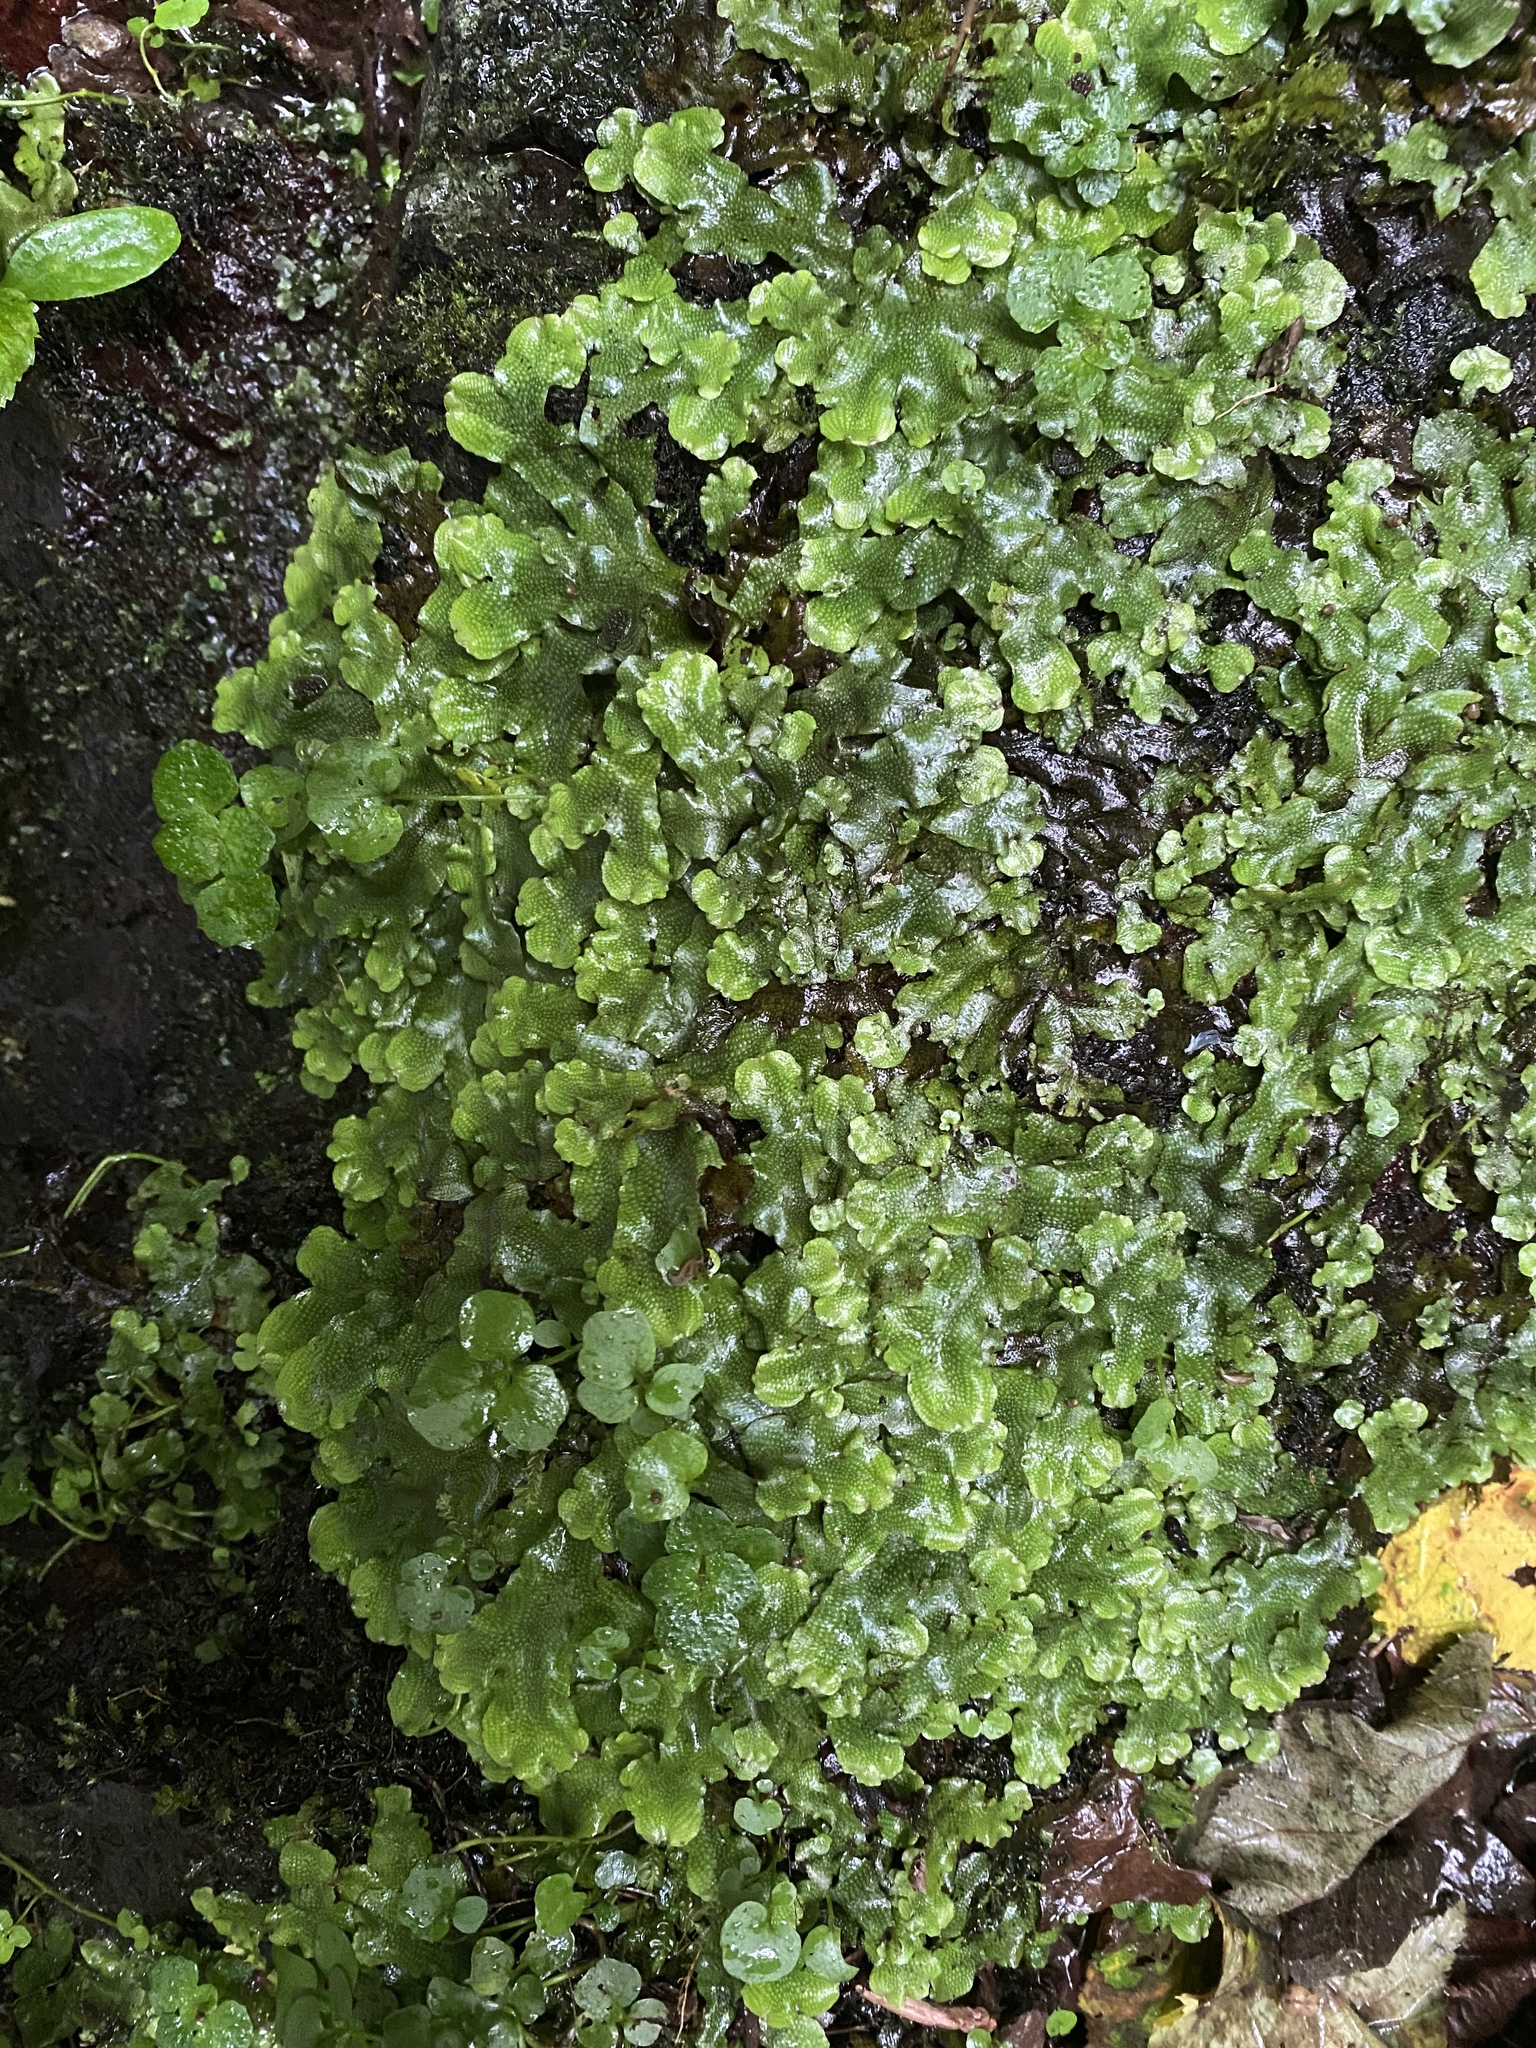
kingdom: Plantae
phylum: Marchantiophyta
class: Marchantiopsida
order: Marchantiales
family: Conocephalaceae
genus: Conocephalum
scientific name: Conocephalum conicum
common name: Great scented liverwort
